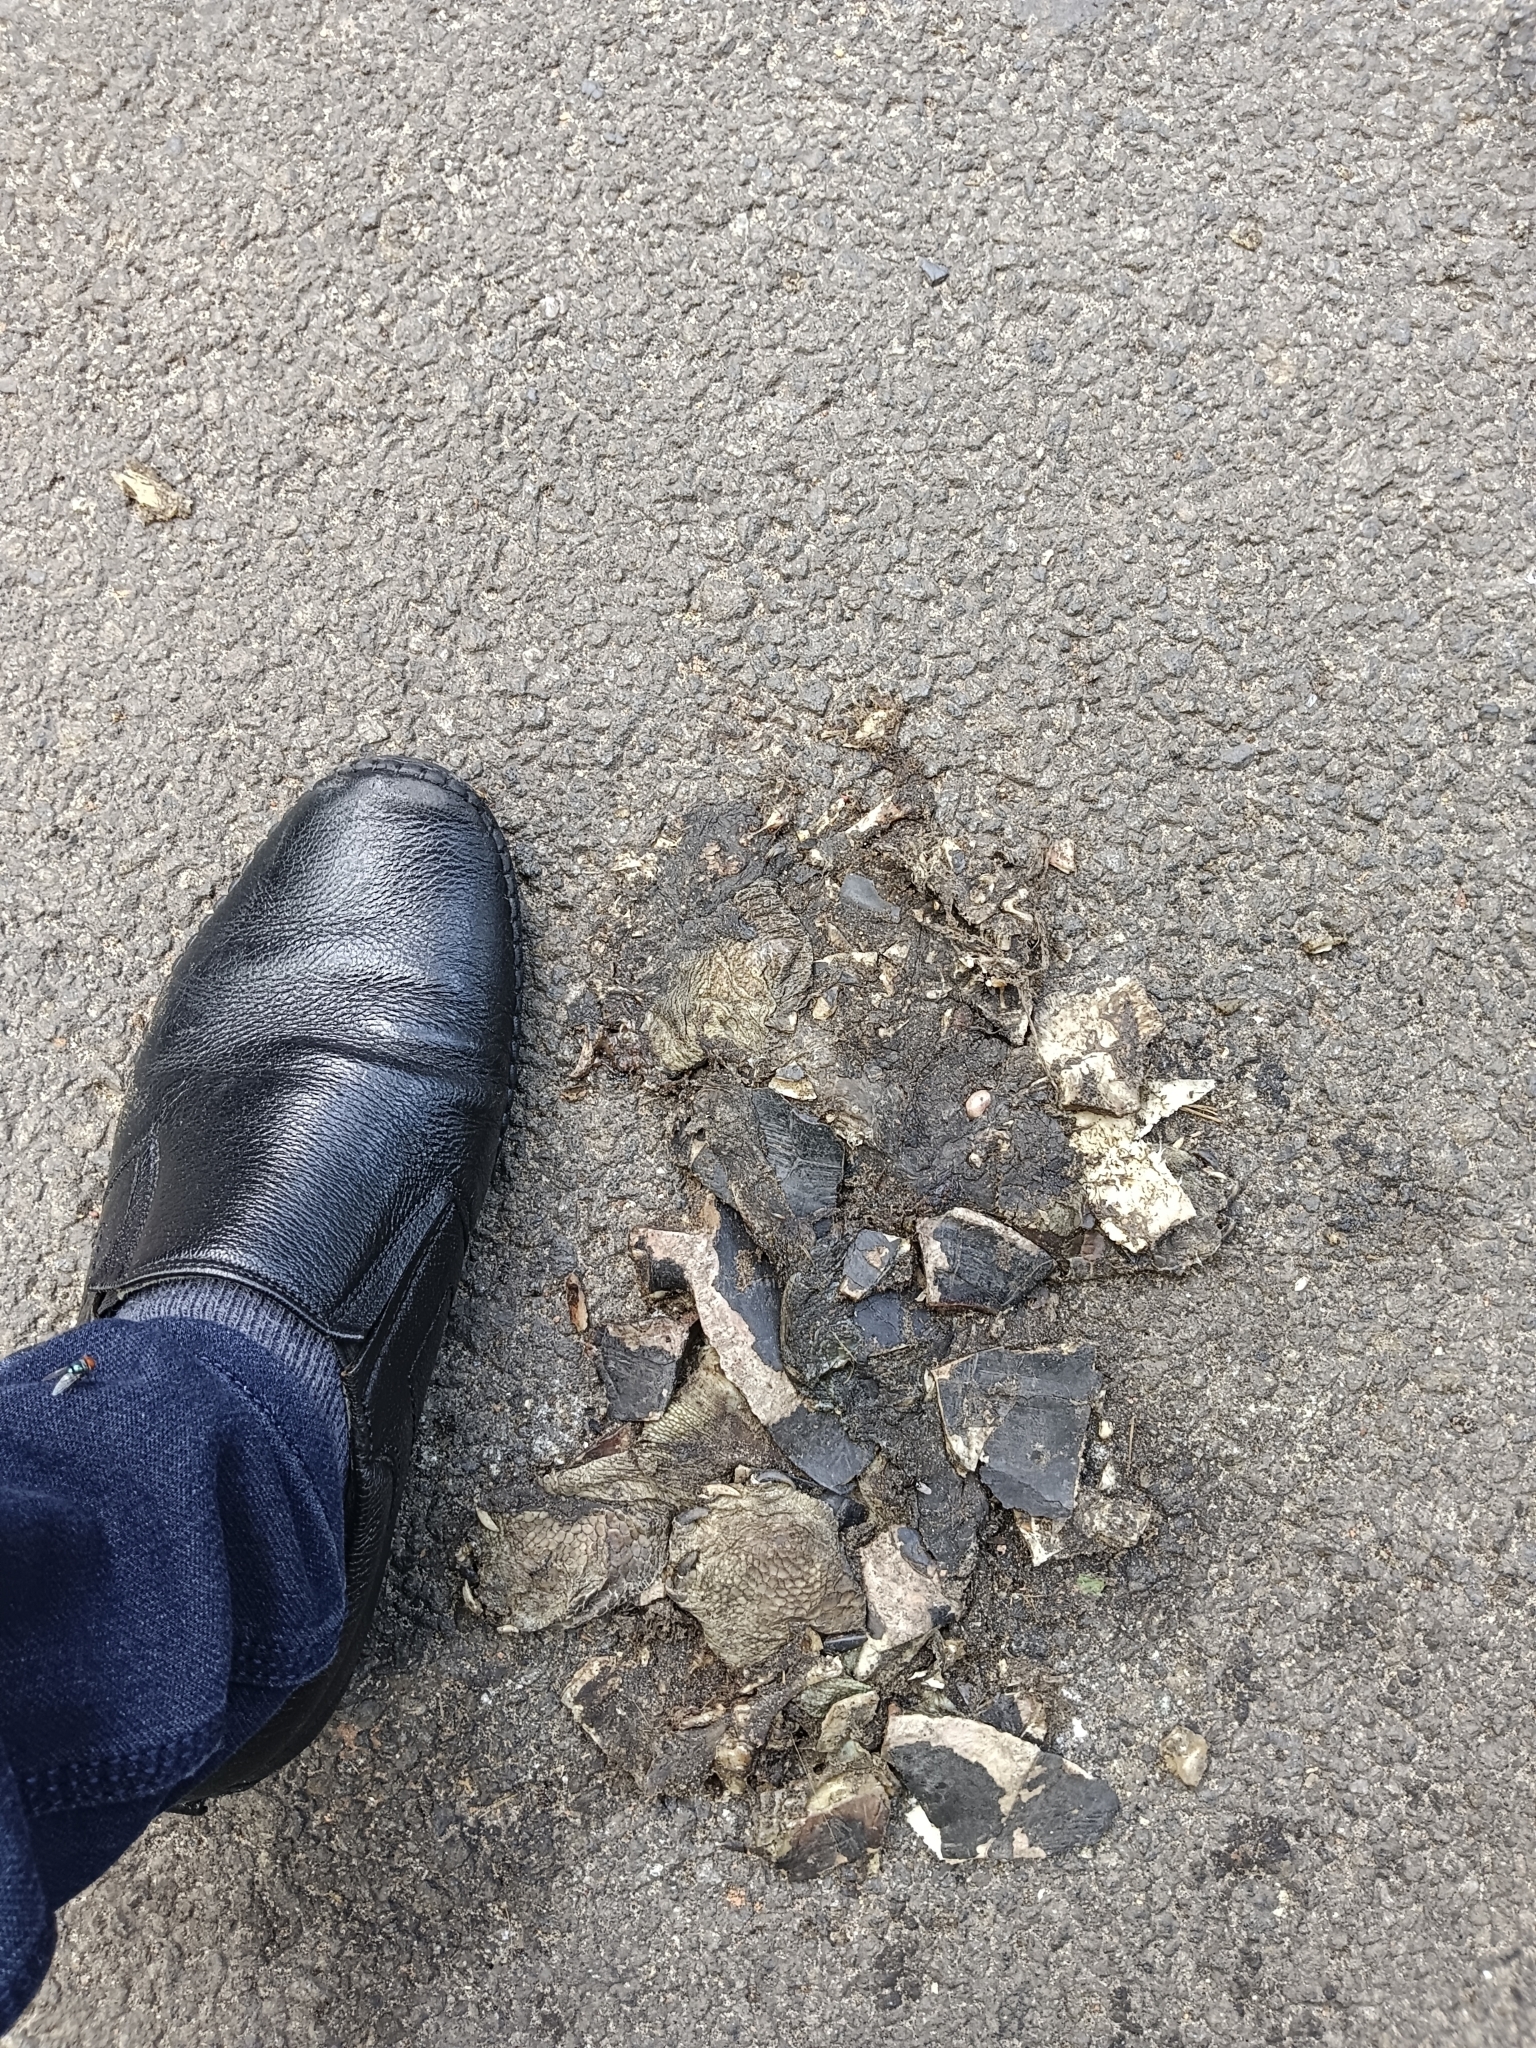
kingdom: Animalia
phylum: Chordata
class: Testudines
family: Geoemydidae
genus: Melanochelys
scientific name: Melanochelys trijuga
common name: Indian black turtle
